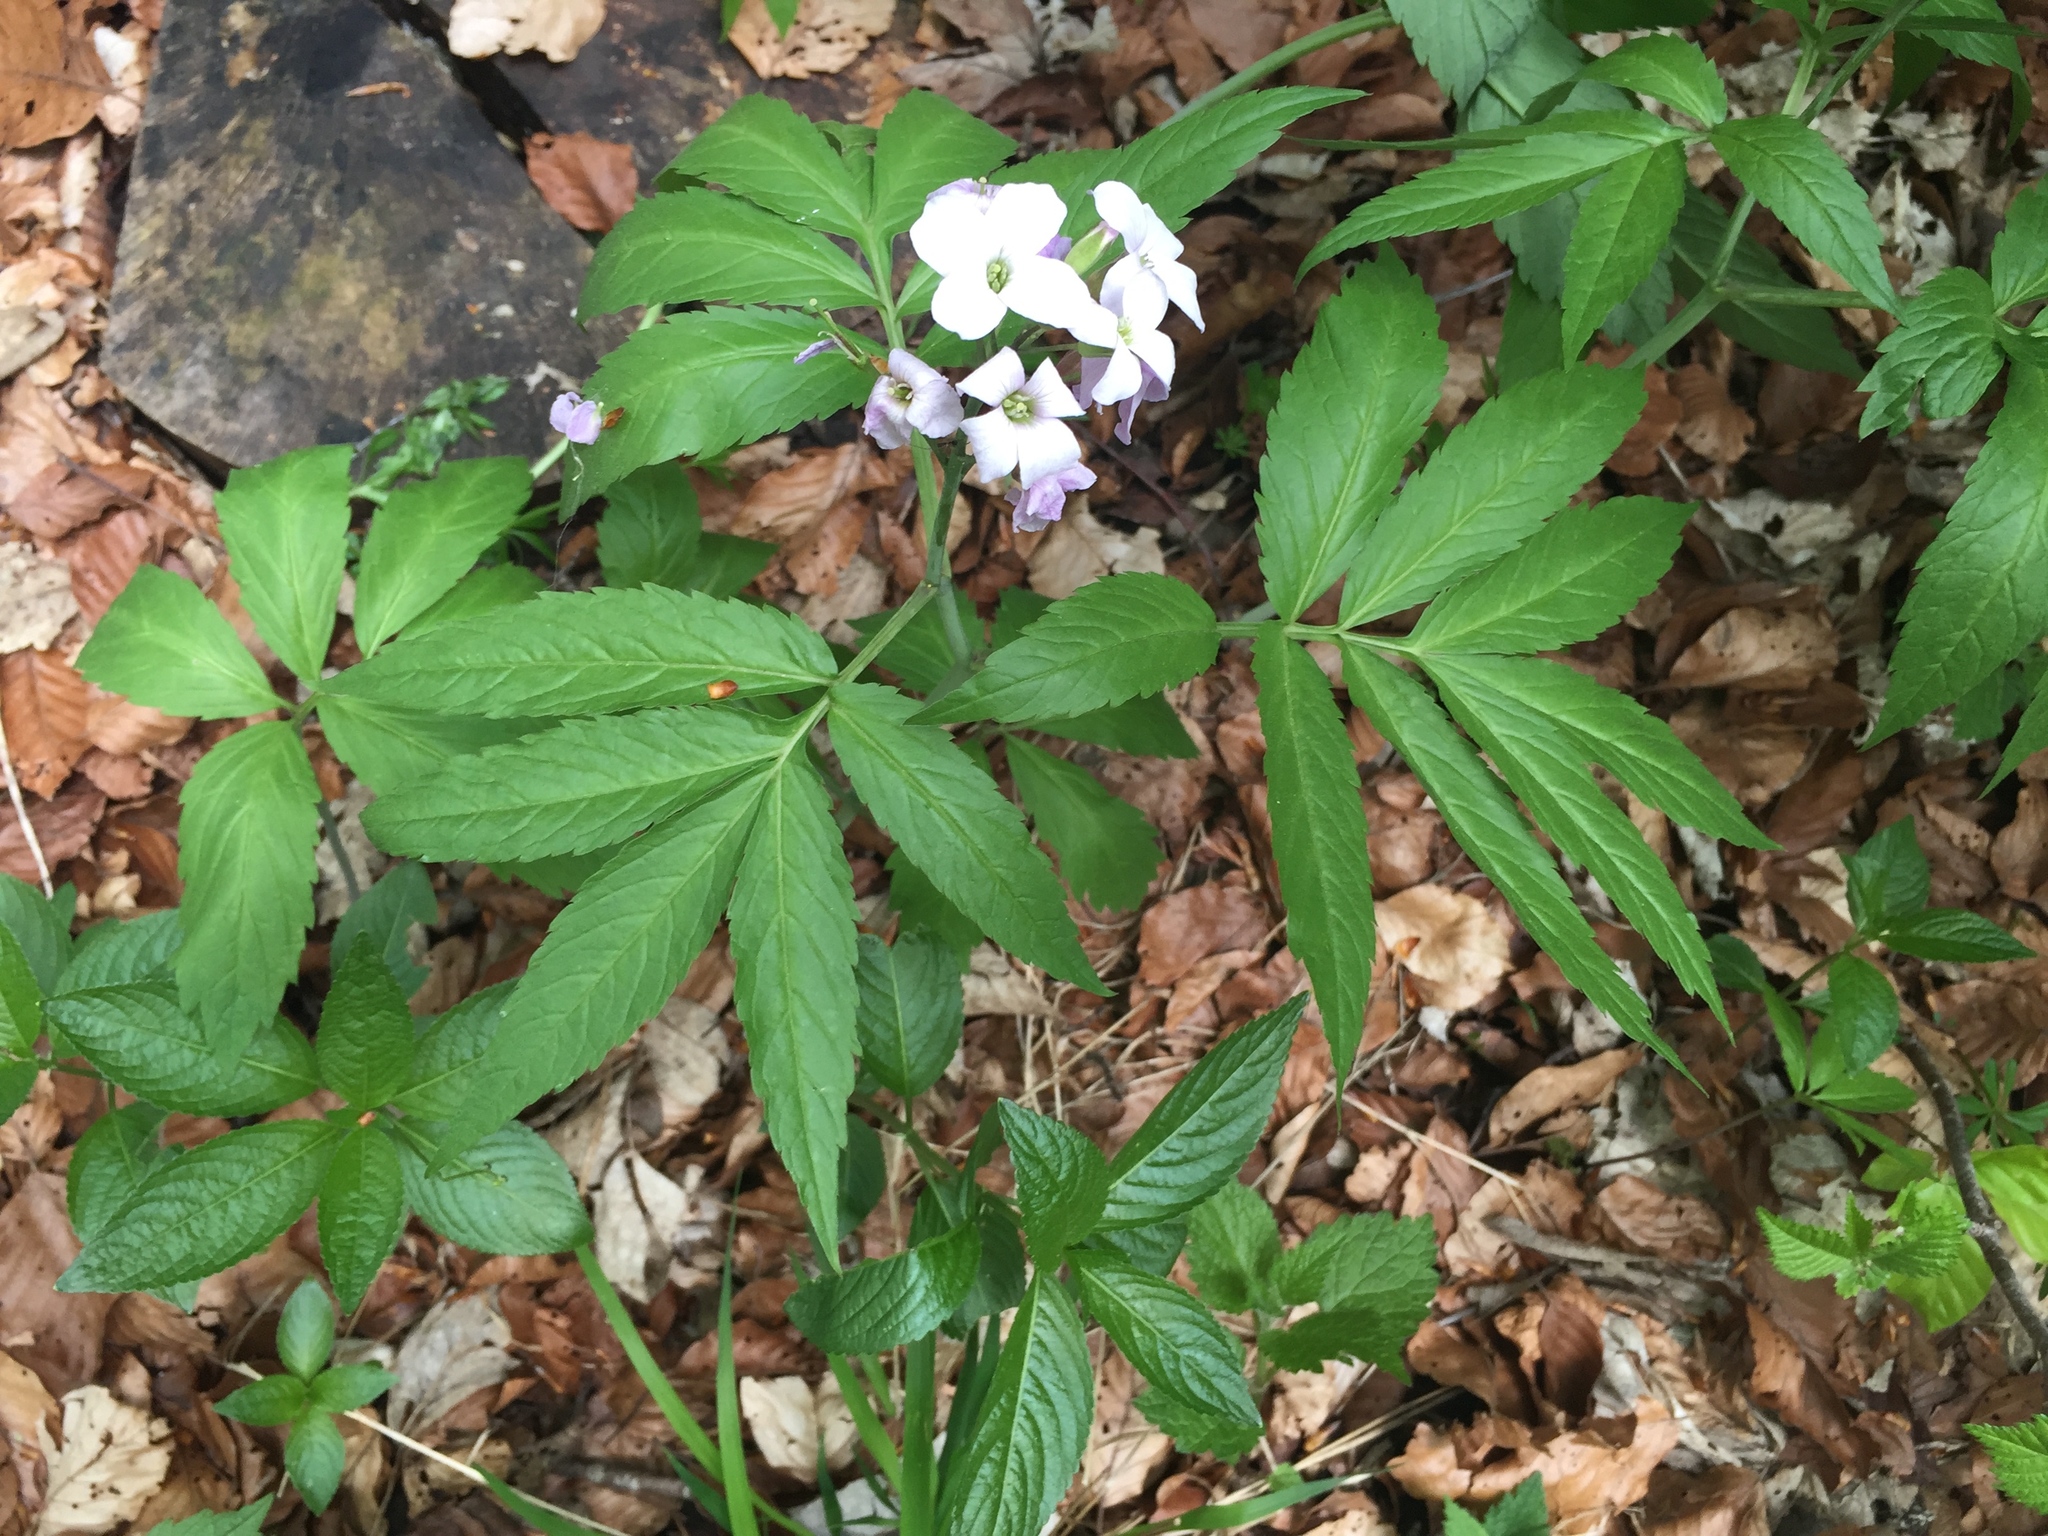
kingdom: Plantae
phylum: Tracheophyta
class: Magnoliopsida
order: Brassicales
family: Brassicaceae
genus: Cardamine
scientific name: Cardamine heptaphylla
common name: Pinnate coralroot
